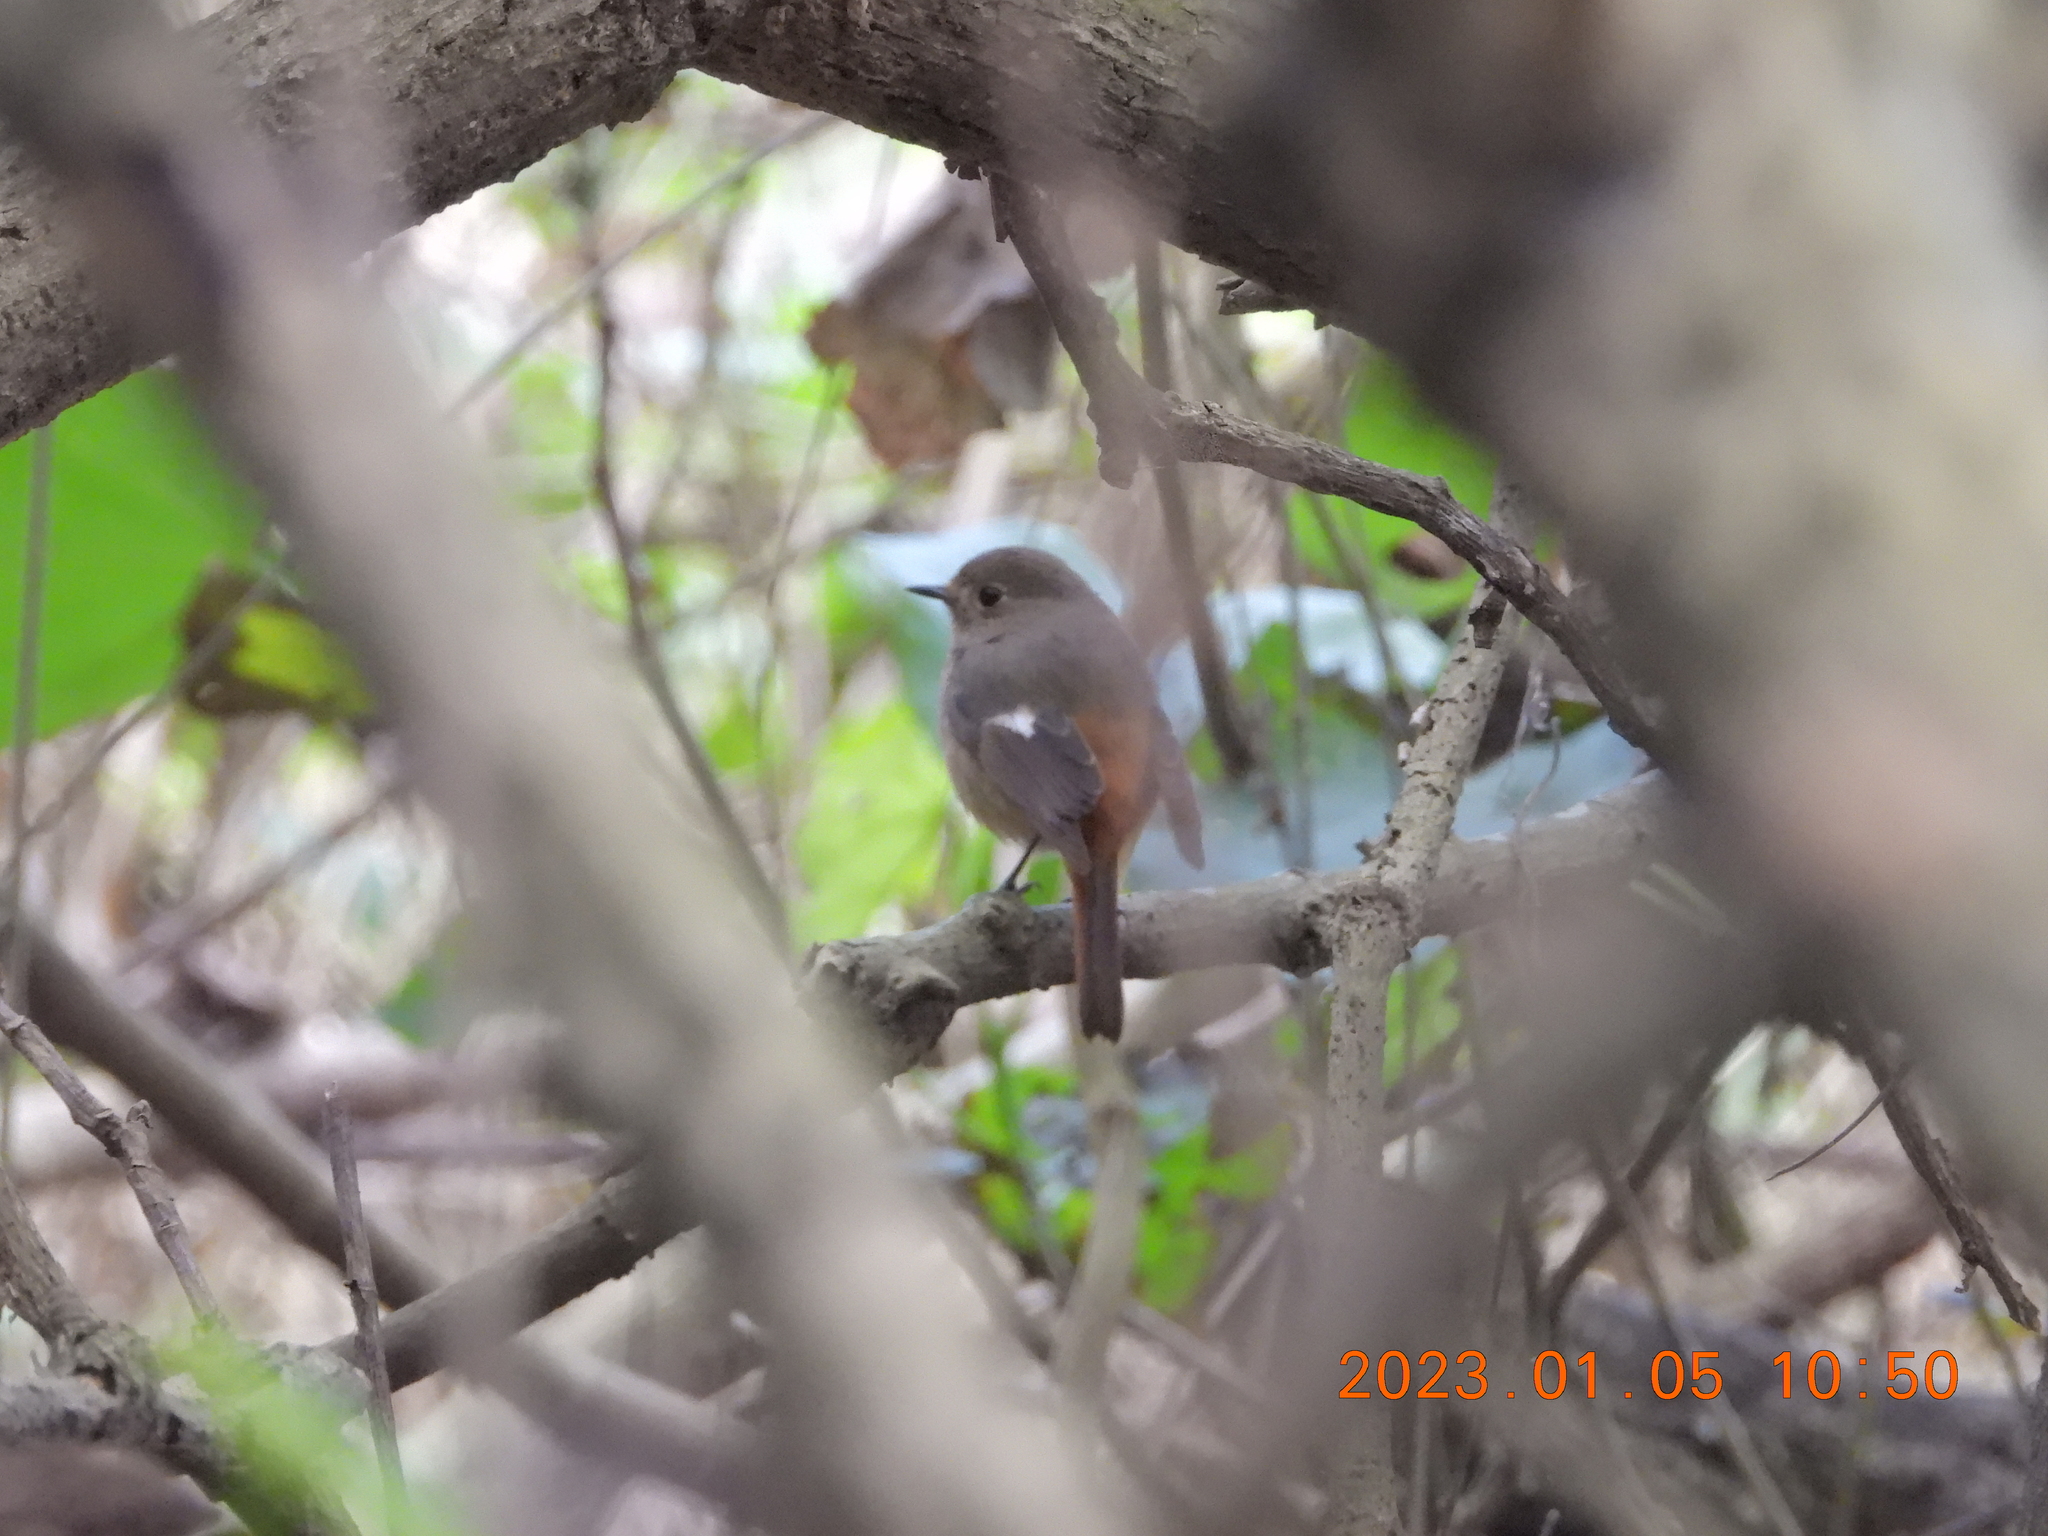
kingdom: Animalia
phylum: Chordata
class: Aves
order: Passeriformes
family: Muscicapidae
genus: Phoenicurus
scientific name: Phoenicurus auroreus
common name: Daurian redstart
